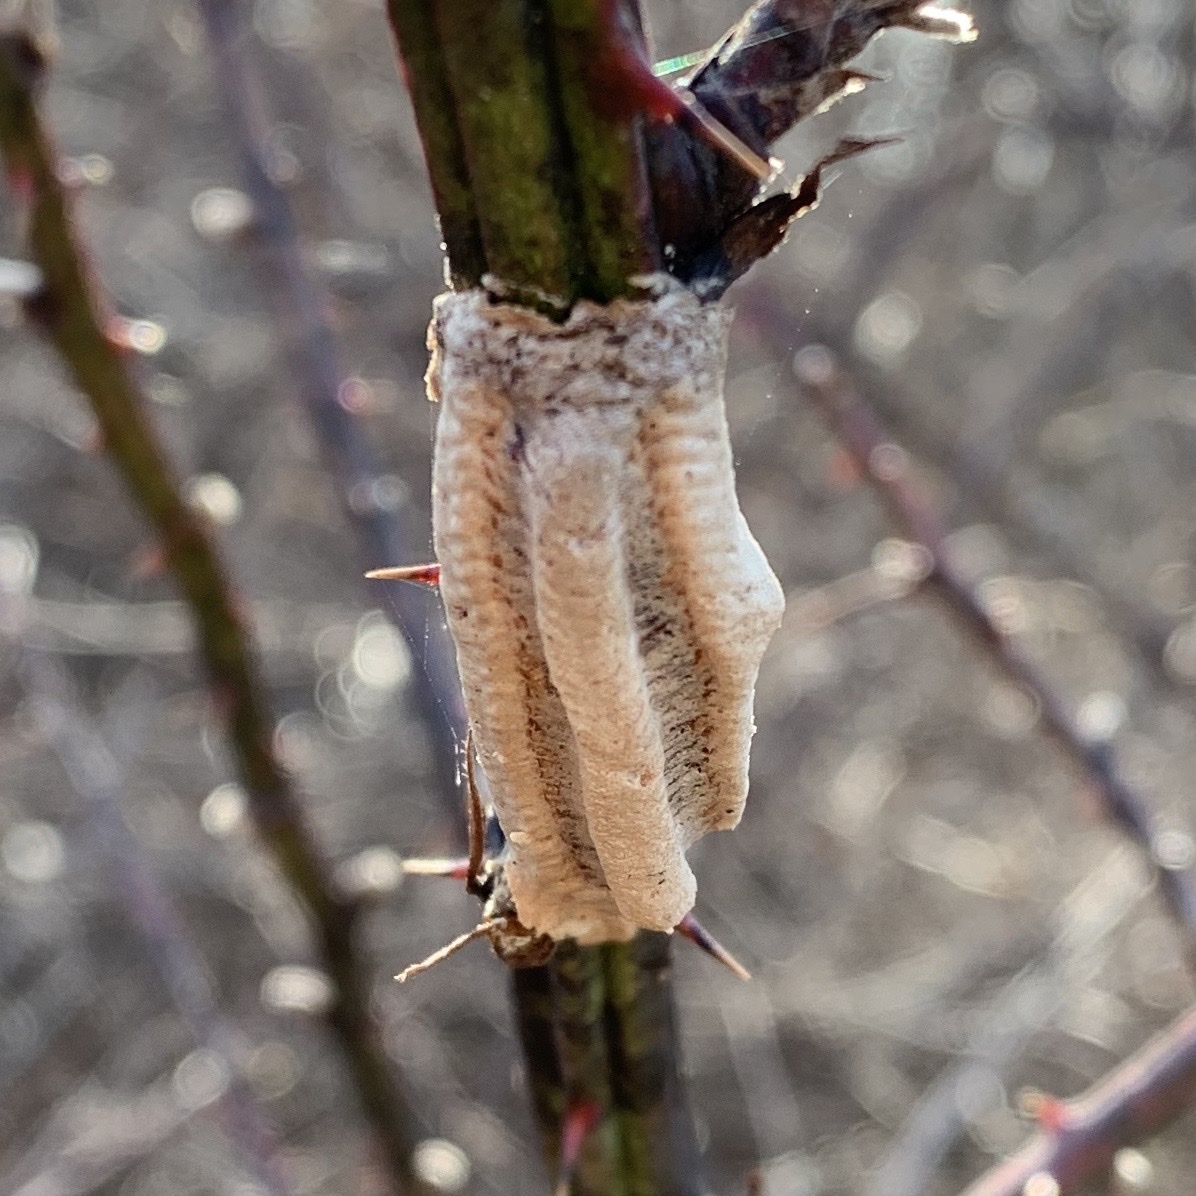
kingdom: Animalia
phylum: Arthropoda
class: Insecta
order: Mantodea
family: Mantidae
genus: Tenodera
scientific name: Tenodera angustipennis
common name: Asian mantis
